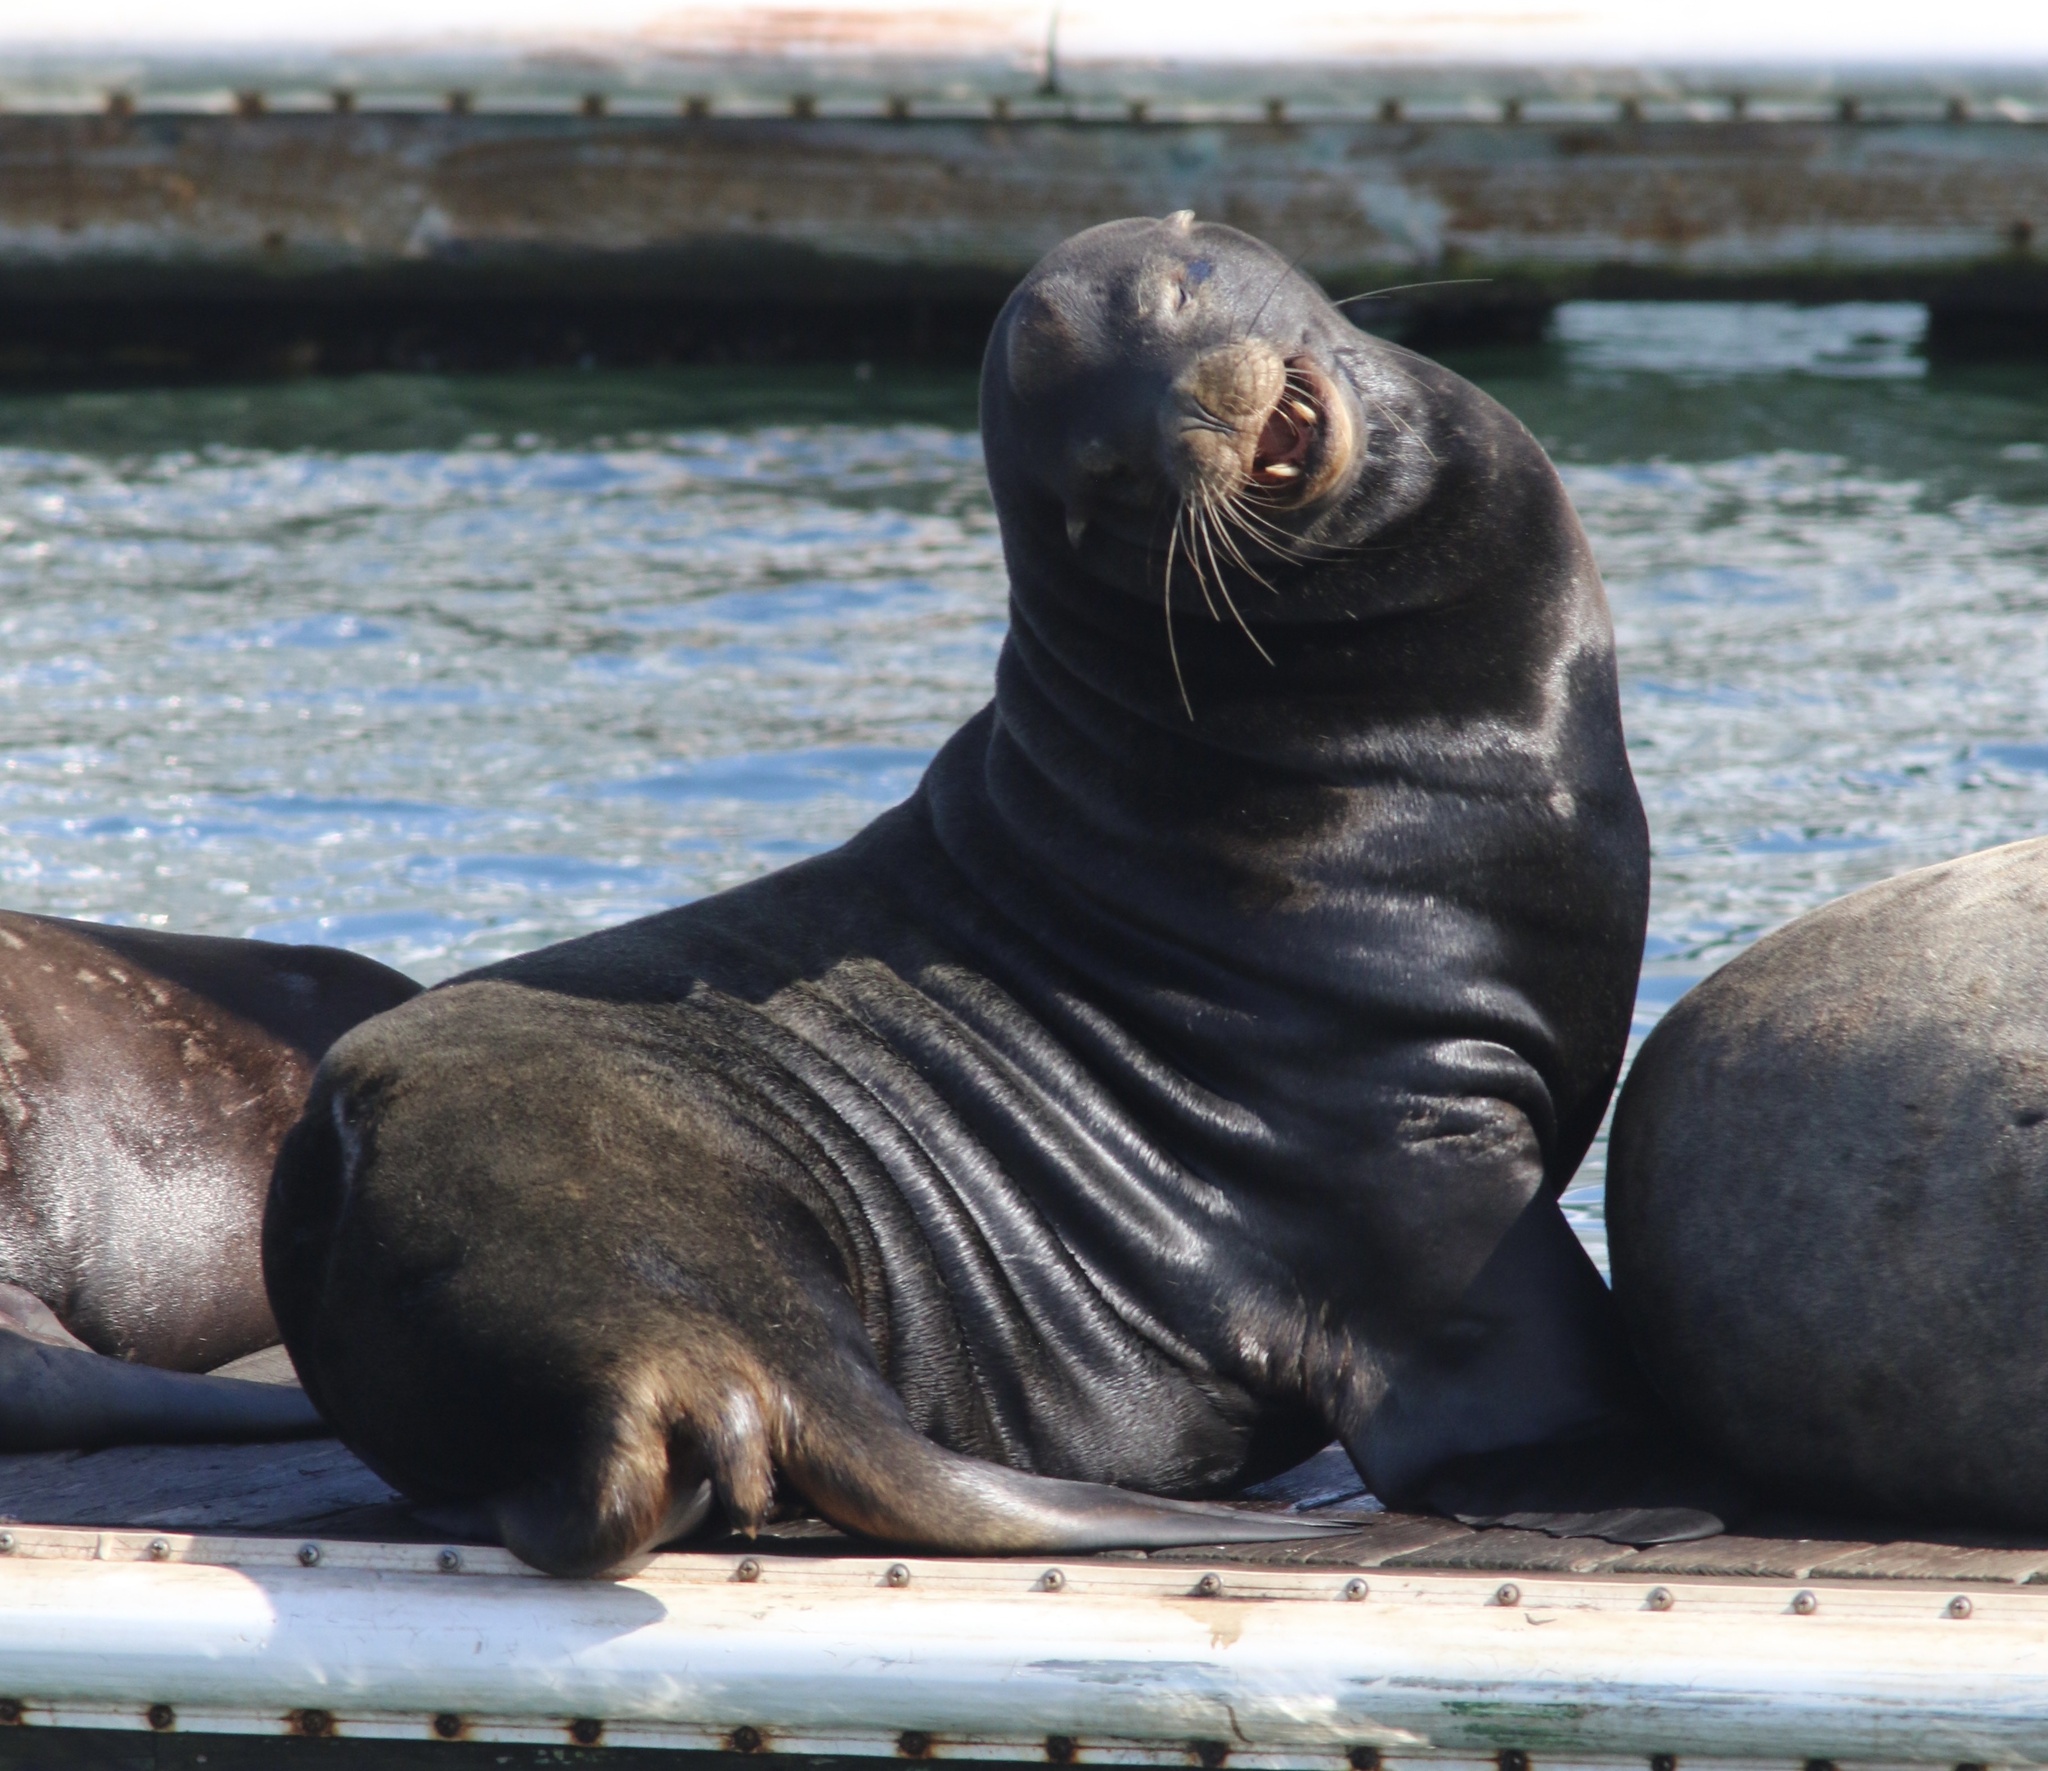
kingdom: Animalia
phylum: Chordata
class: Mammalia
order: Carnivora
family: Otariidae
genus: Zalophus
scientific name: Zalophus californianus
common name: California sea lion
